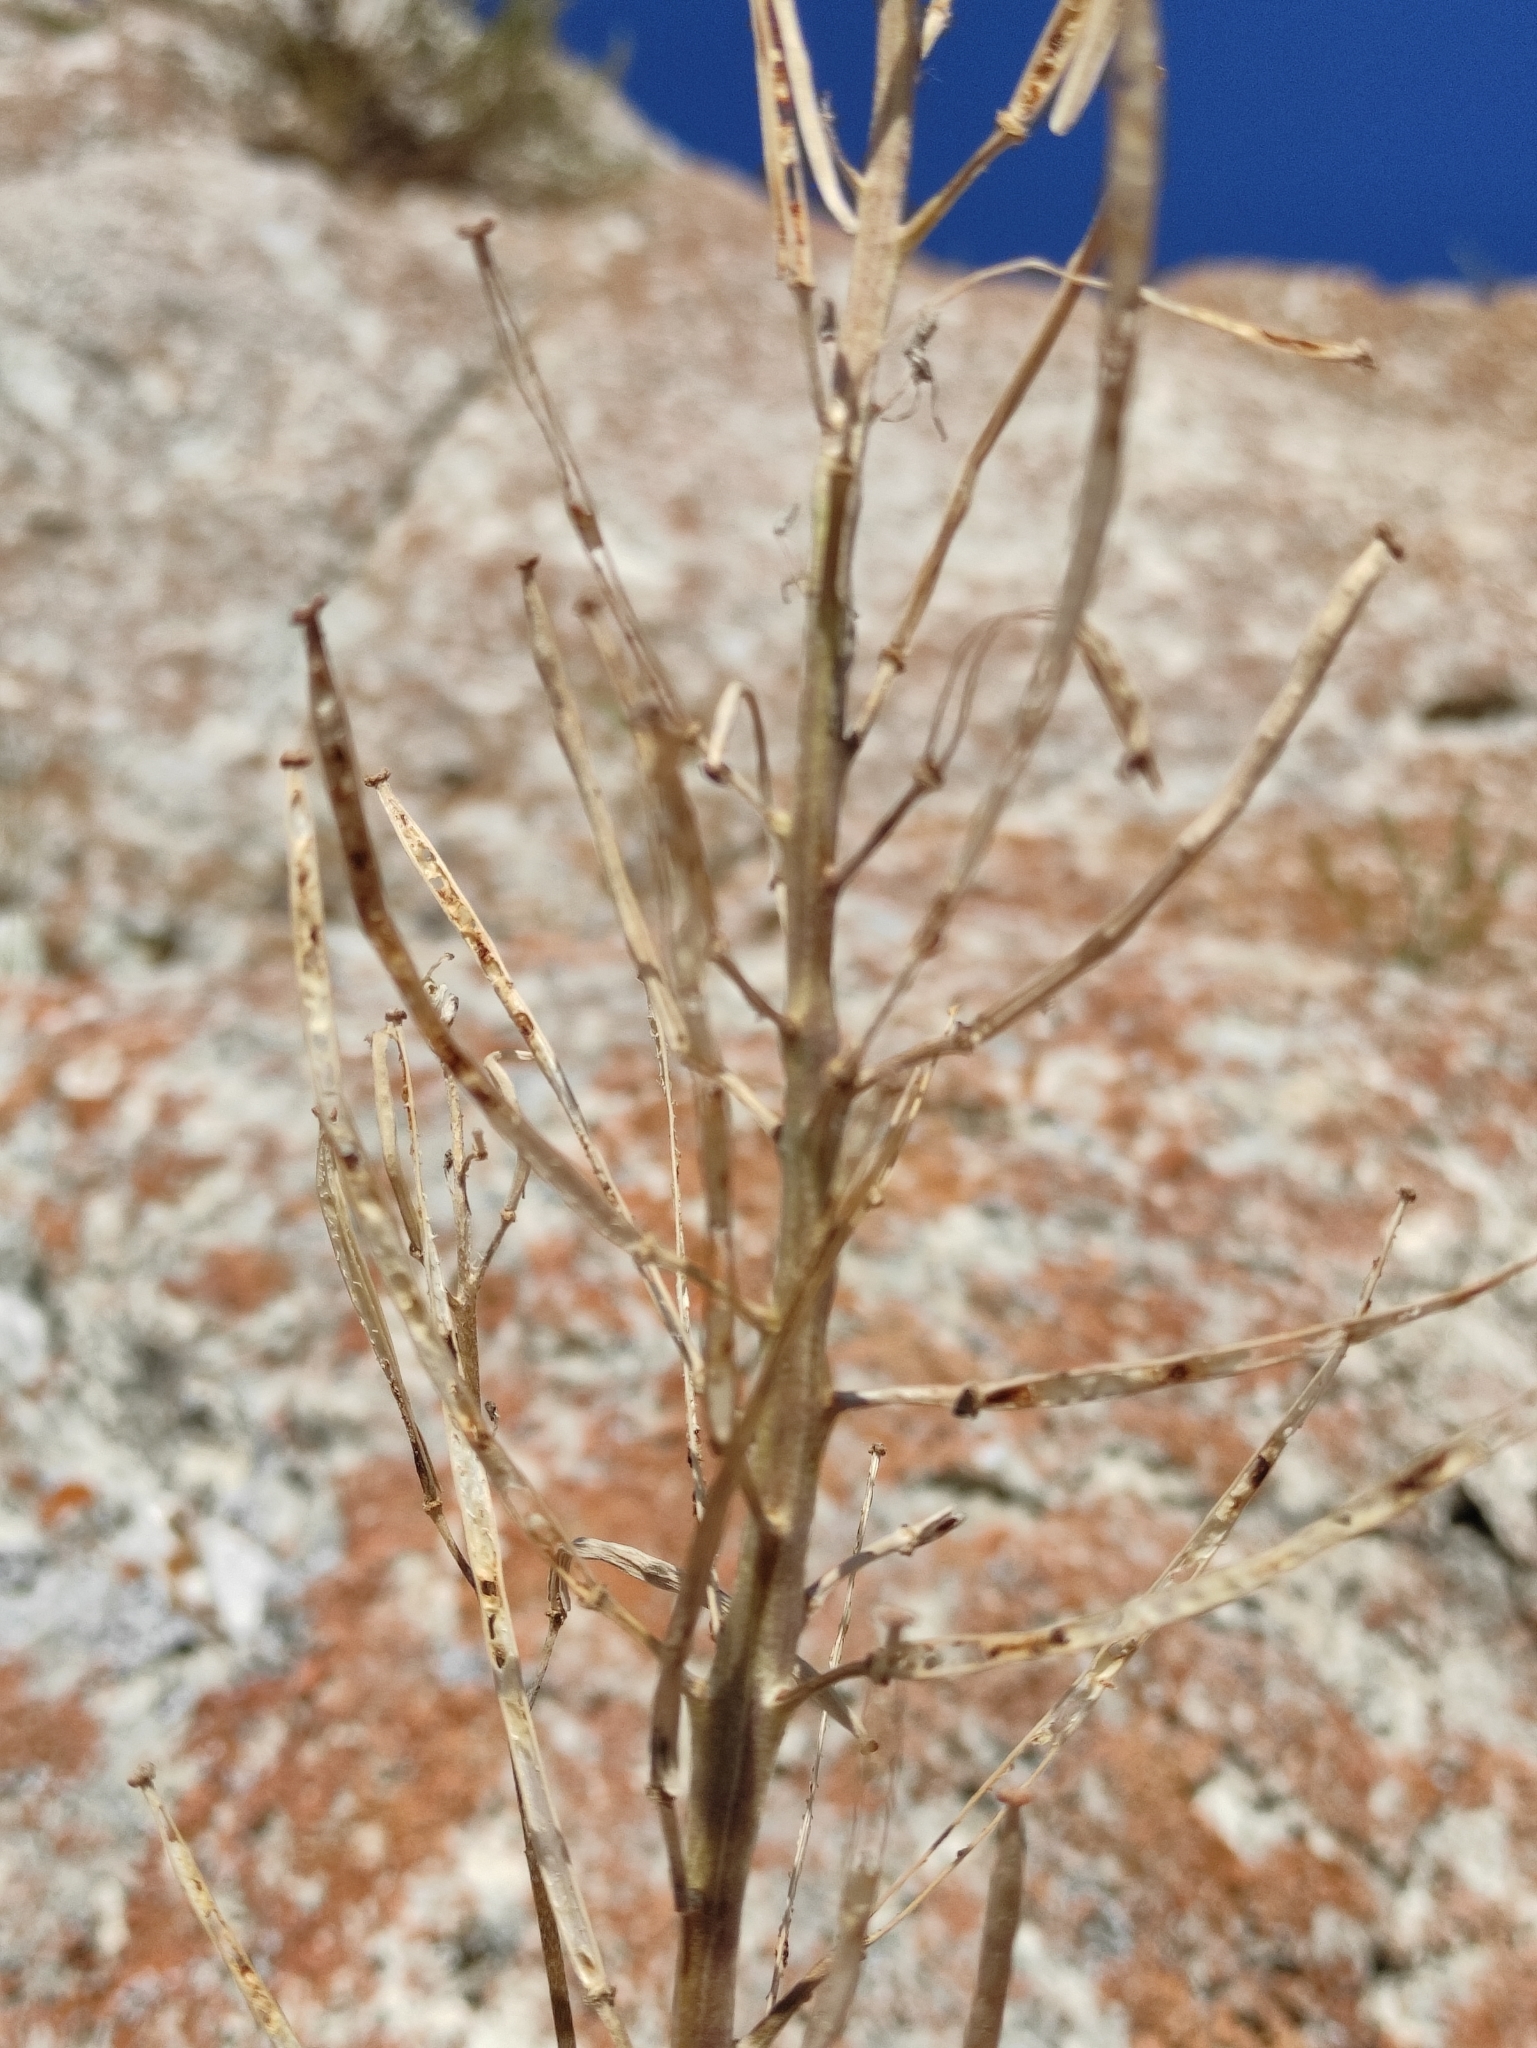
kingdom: Plantae
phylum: Tracheophyta
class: Magnoliopsida
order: Brassicales
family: Brassicaceae
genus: Erysimum
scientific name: Erysimum flavum
